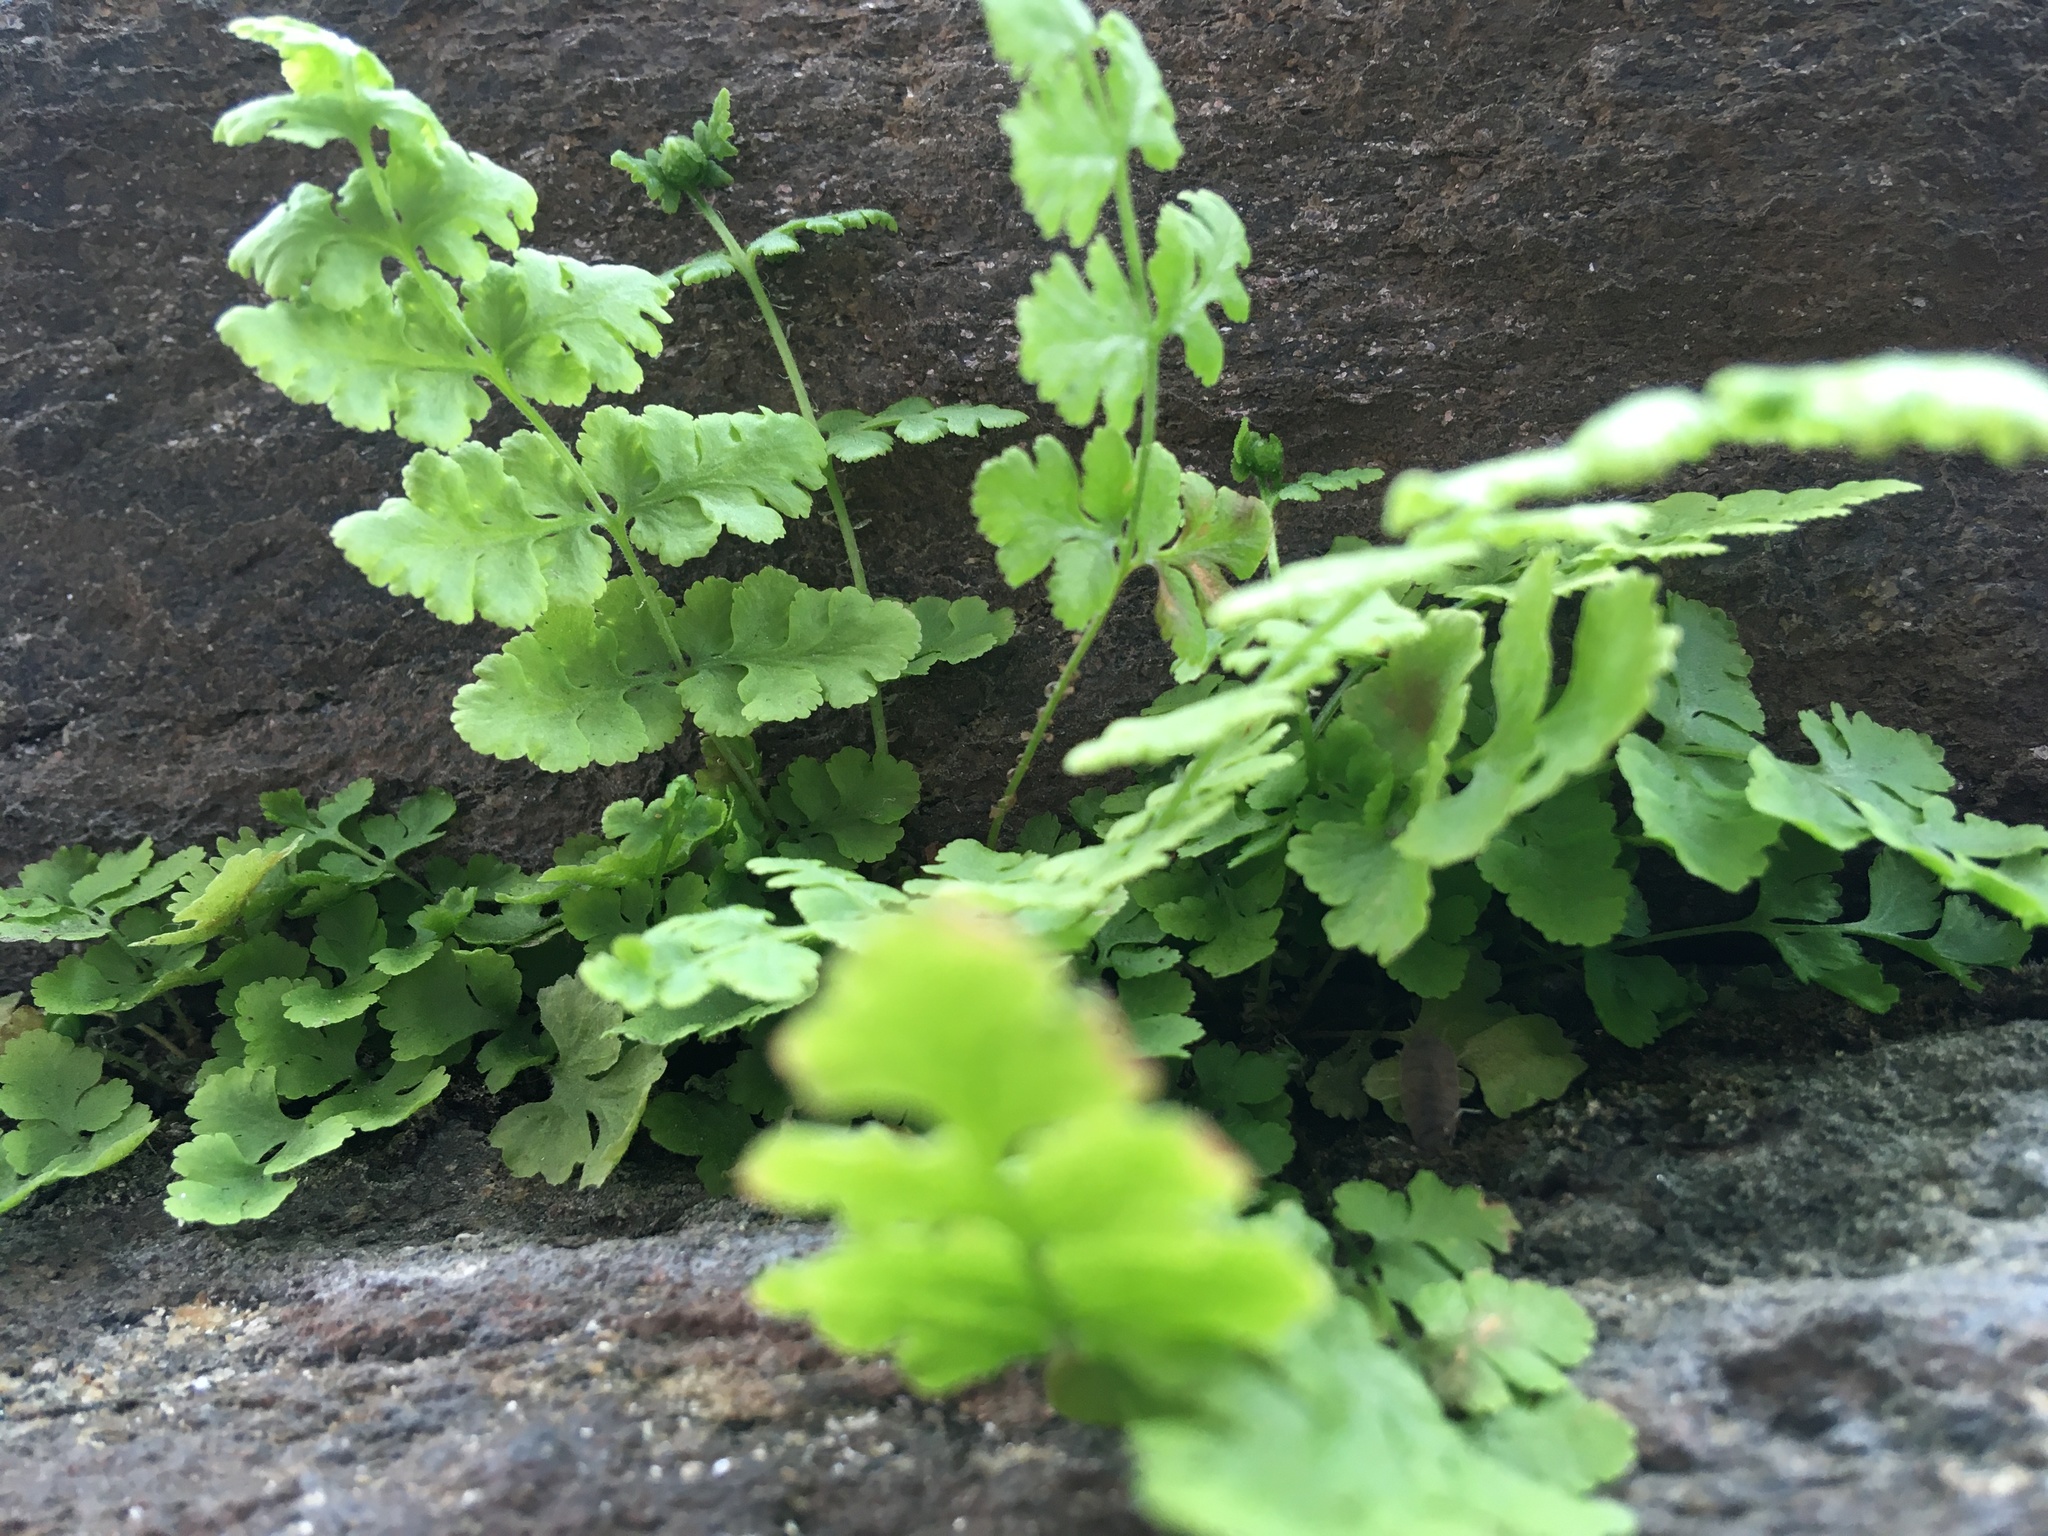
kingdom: Plantae
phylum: Tracheophyta
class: Polypodiopsida
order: Polypodiales
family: Woodsiaceae
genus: Physematium
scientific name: Physematium obtusum
